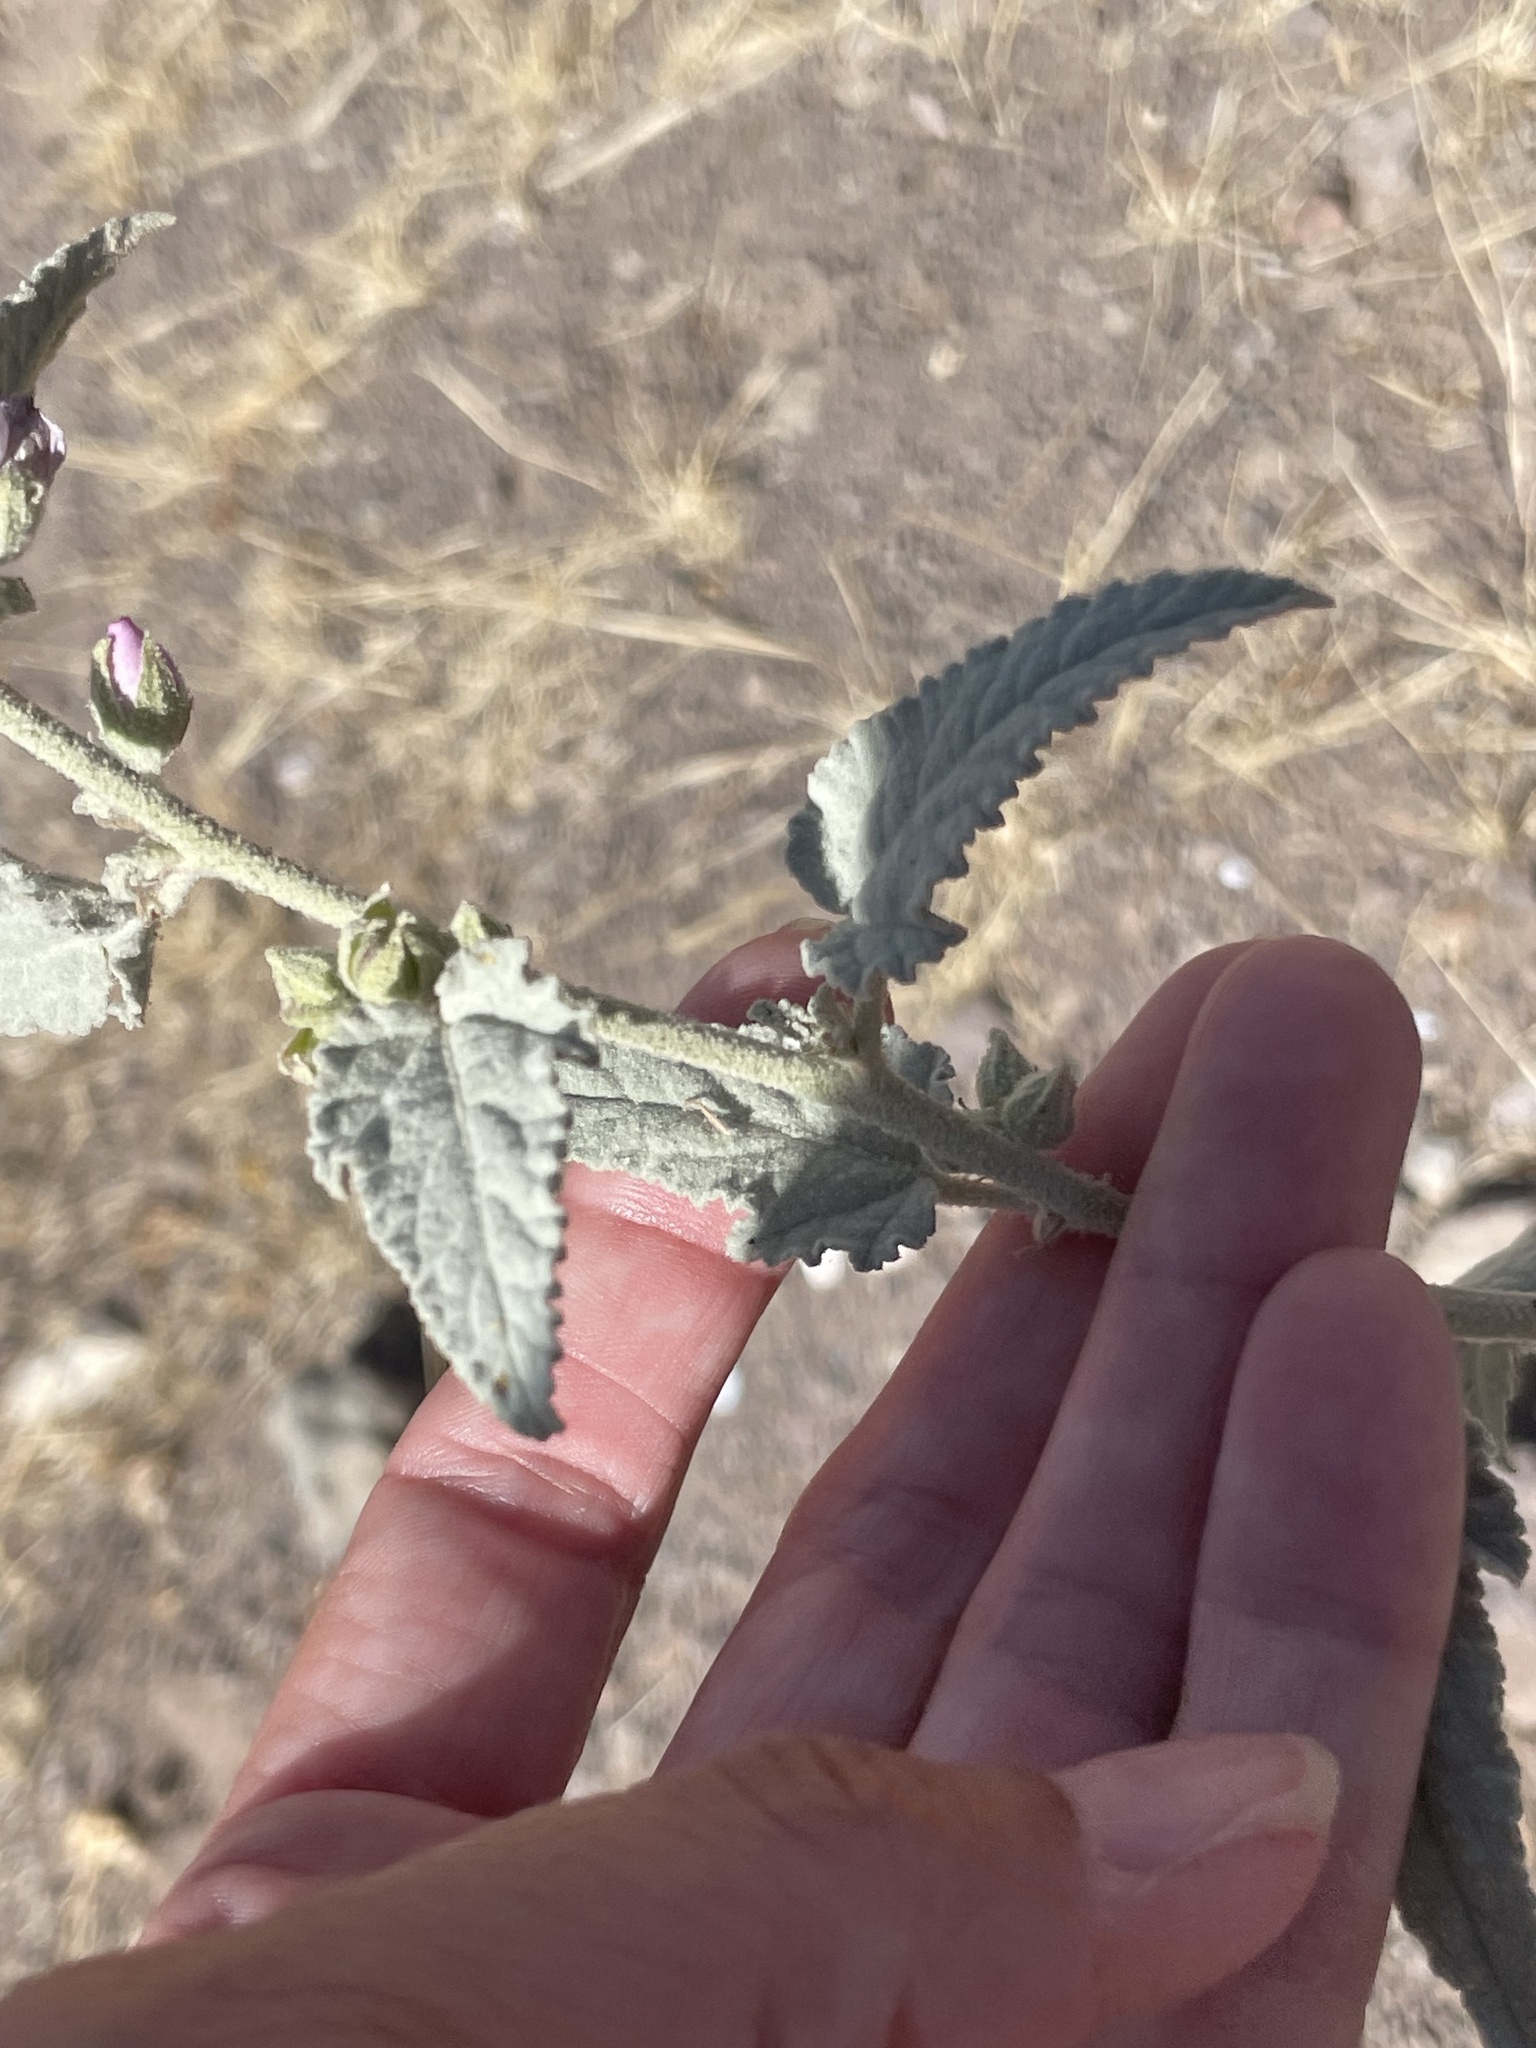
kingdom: Plantae
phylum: Tracheophyta
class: Magnoliopsida
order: Malvales
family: Malvaceae
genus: Horsfordia
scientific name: Horsfordia alata
